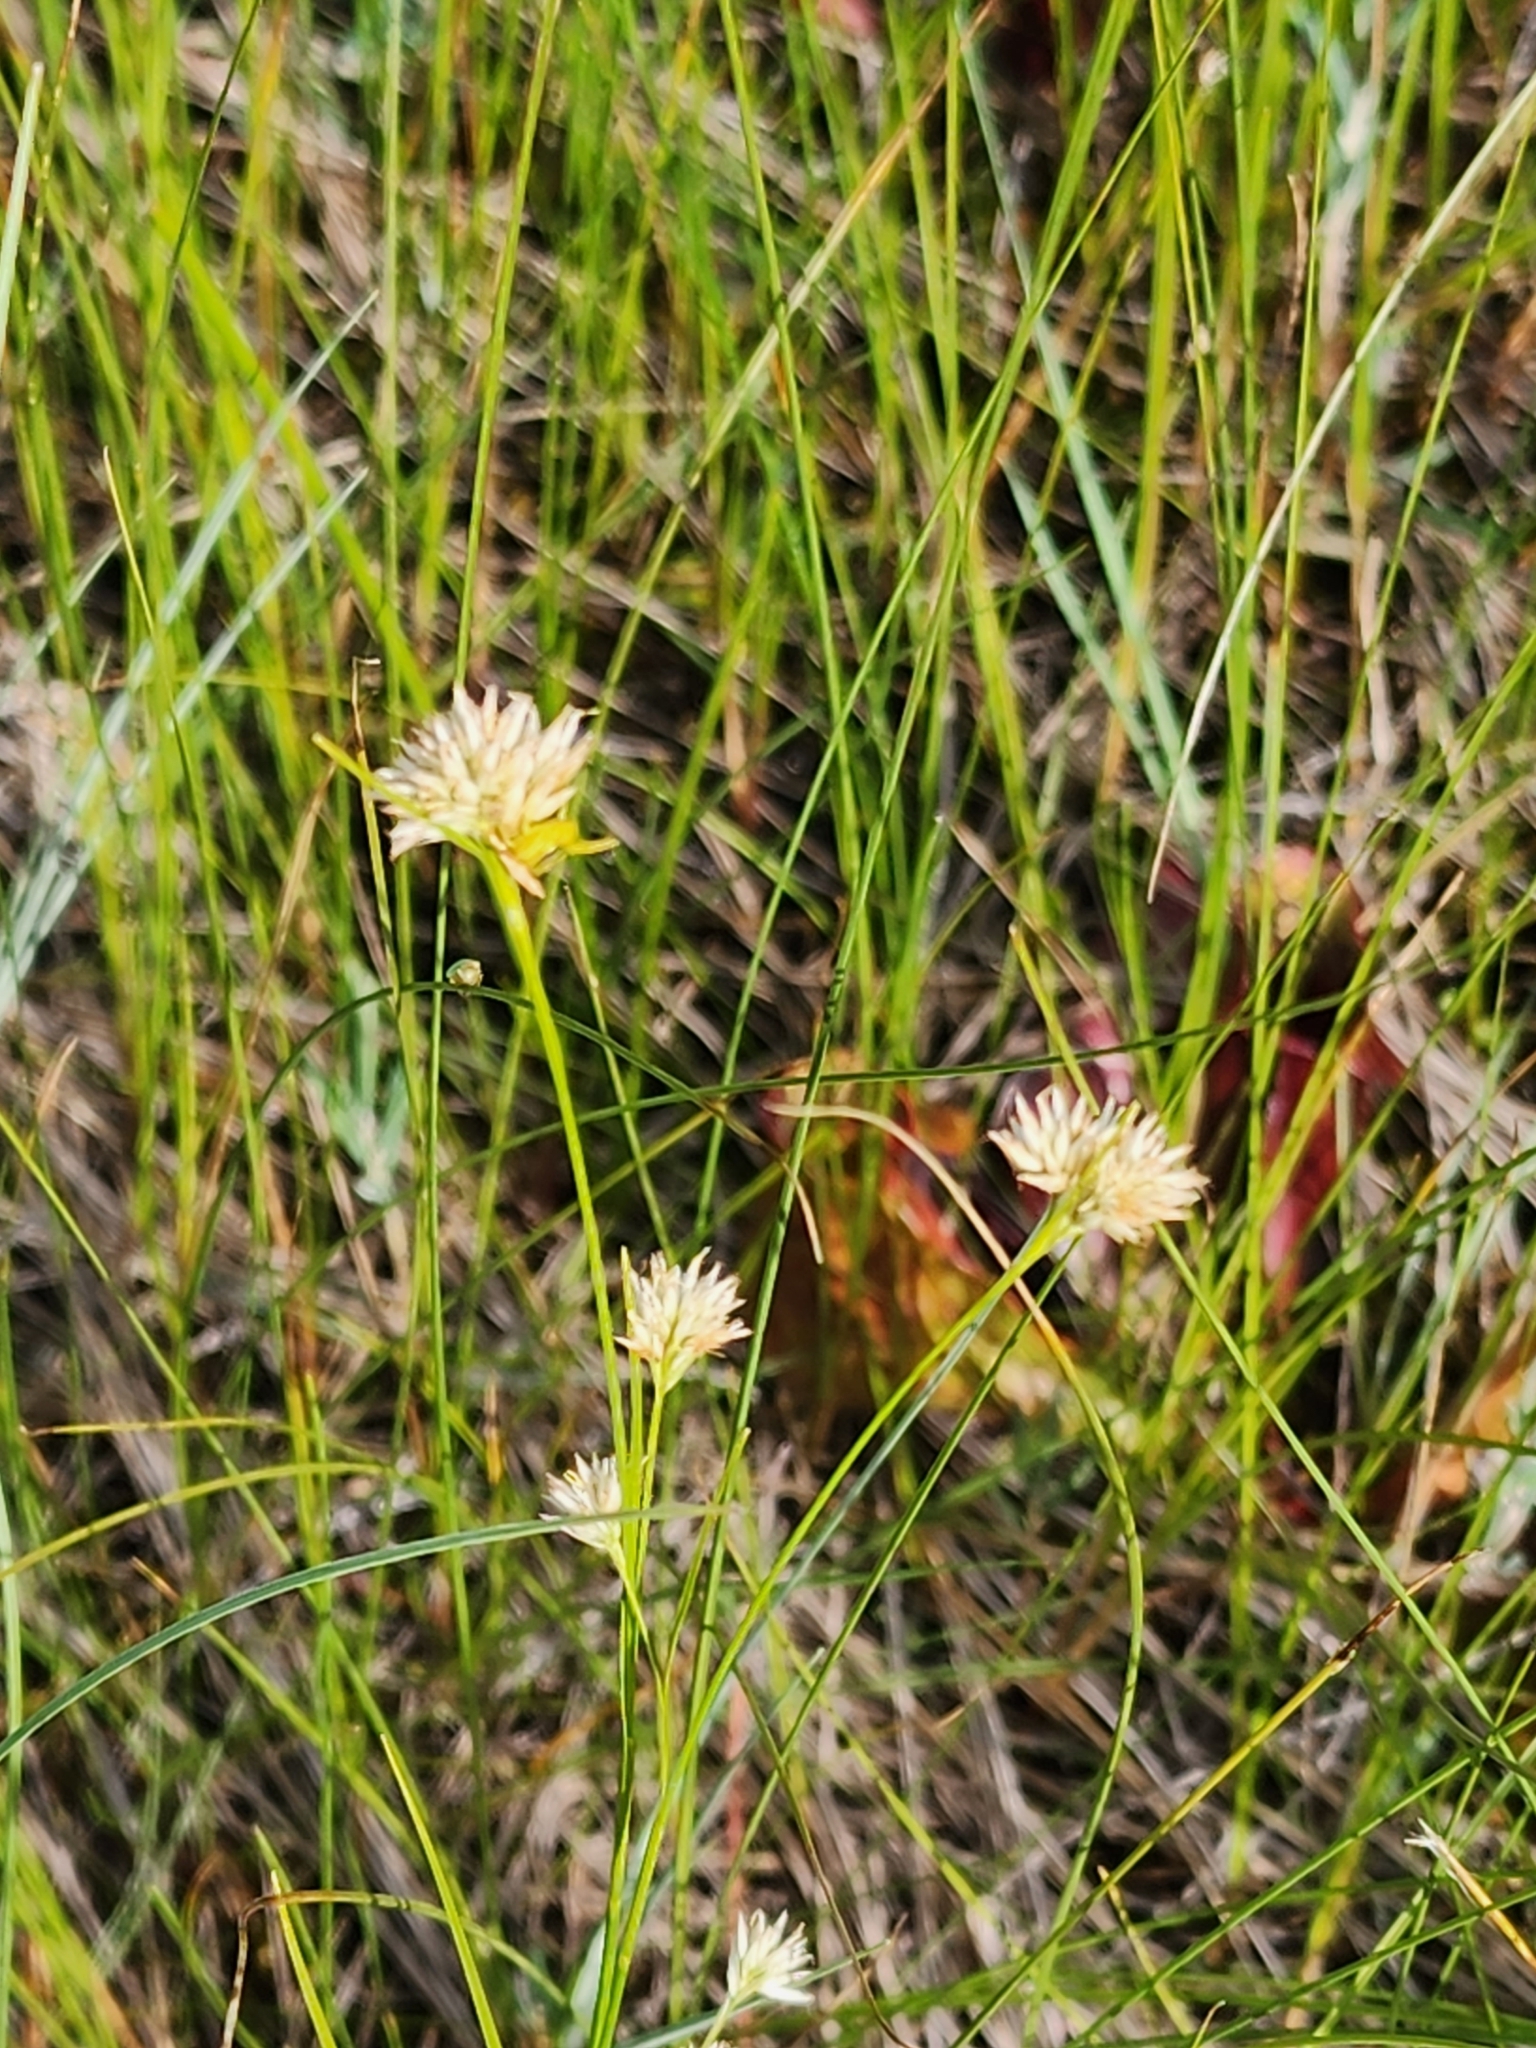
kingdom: Plantae
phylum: Tracheophyta
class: Liliopsida
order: Poales
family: Cyperaceae
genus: Rhynchospora
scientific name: Rhynchospora alba
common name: White beak-sedge
